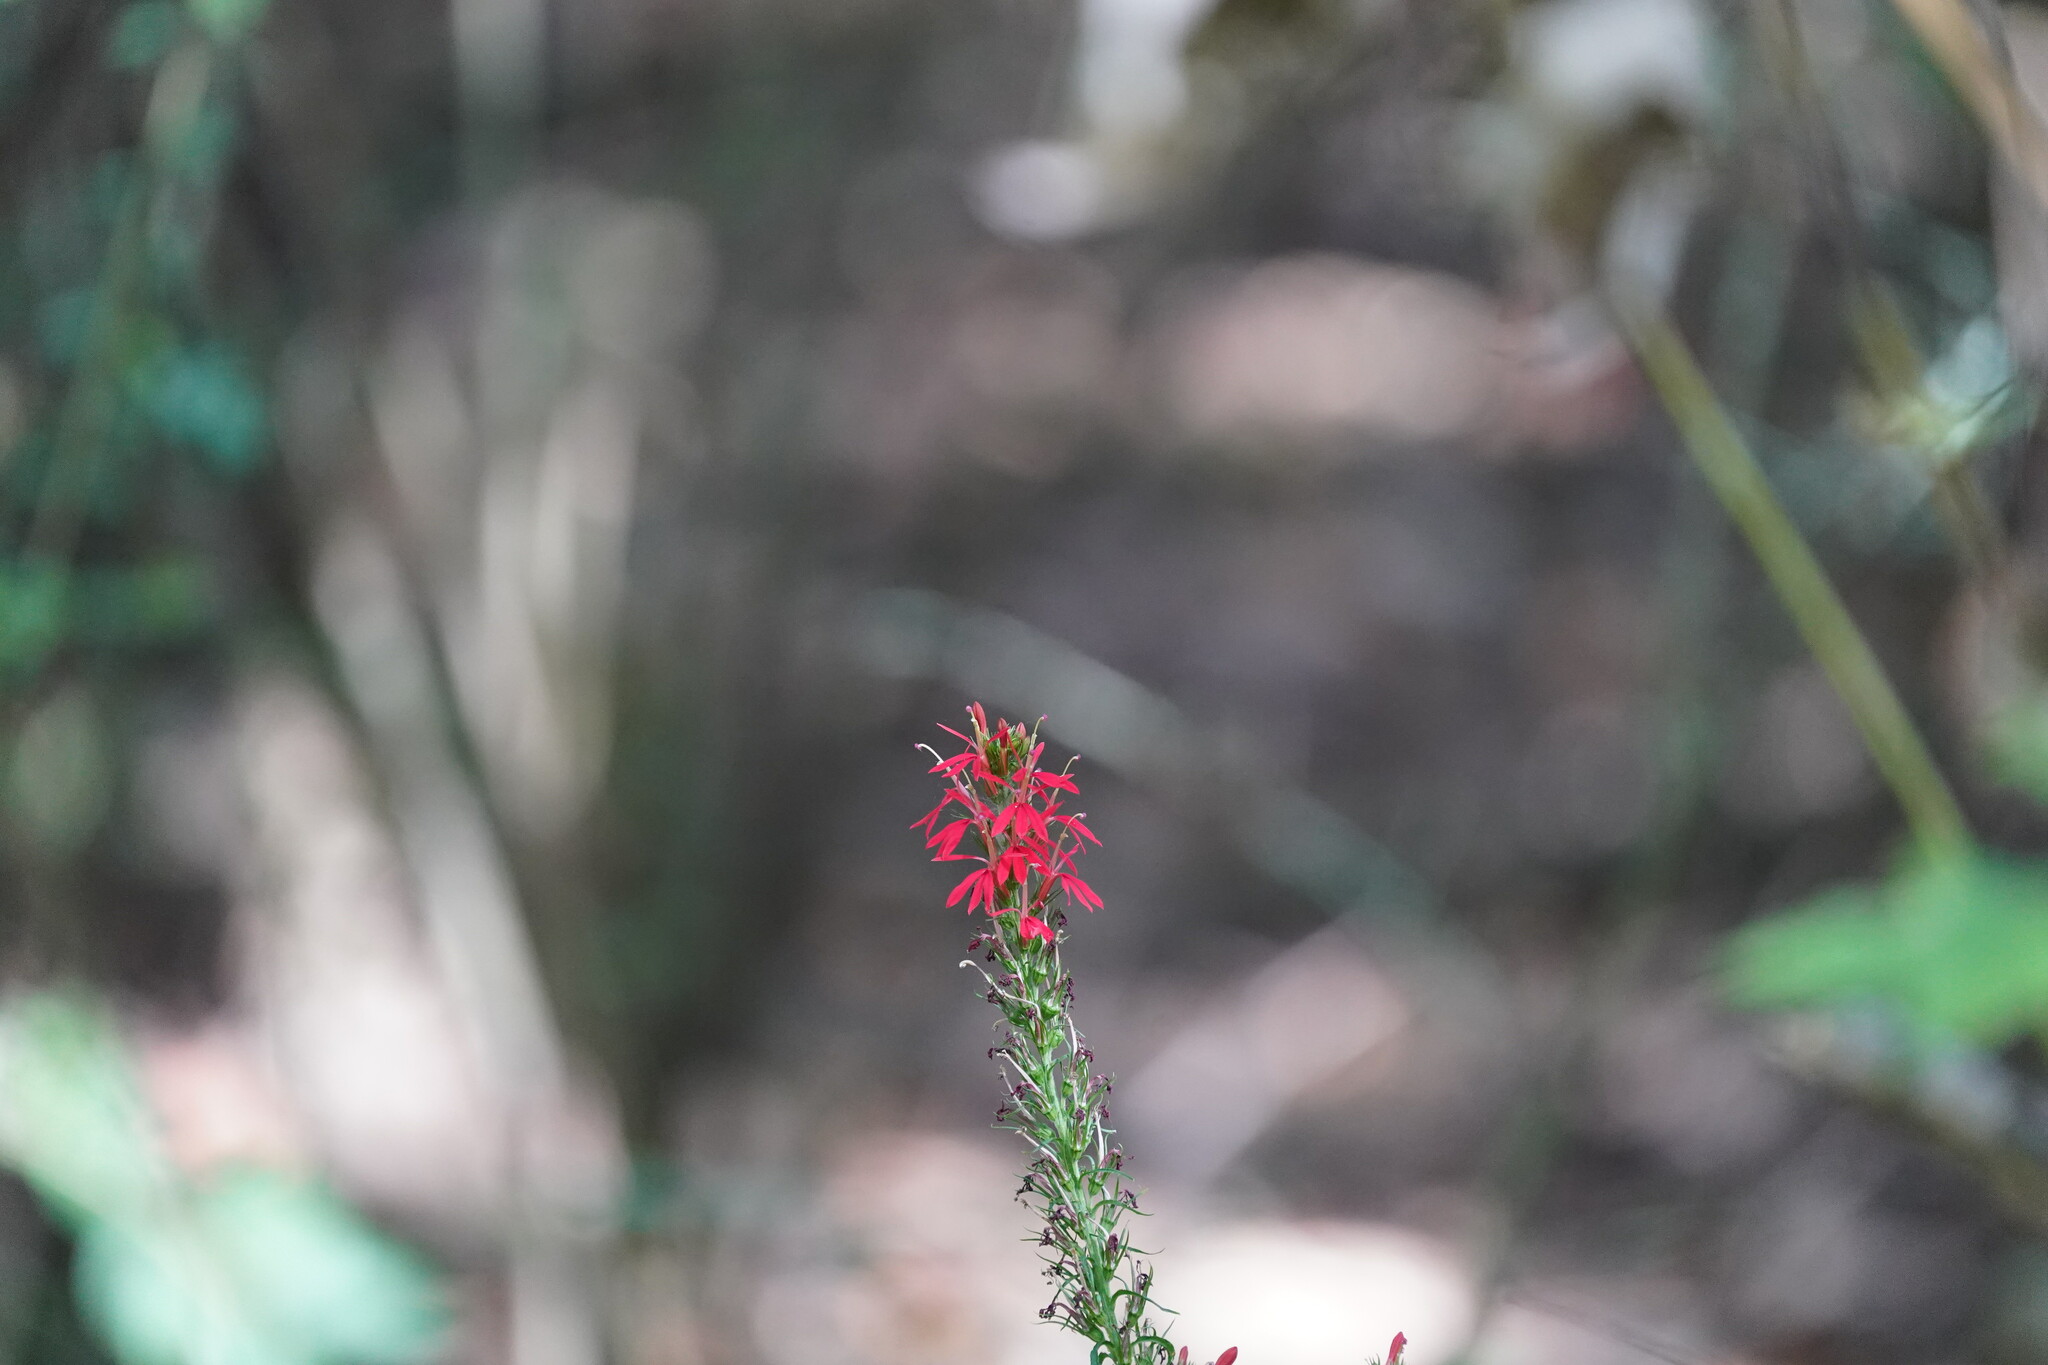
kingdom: Plantae
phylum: Tracheophyta
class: Magnoliopsida
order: Asterales
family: Campanulaceae
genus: Lobelia
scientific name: Lobelia cardinalis
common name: Cardinal flower
